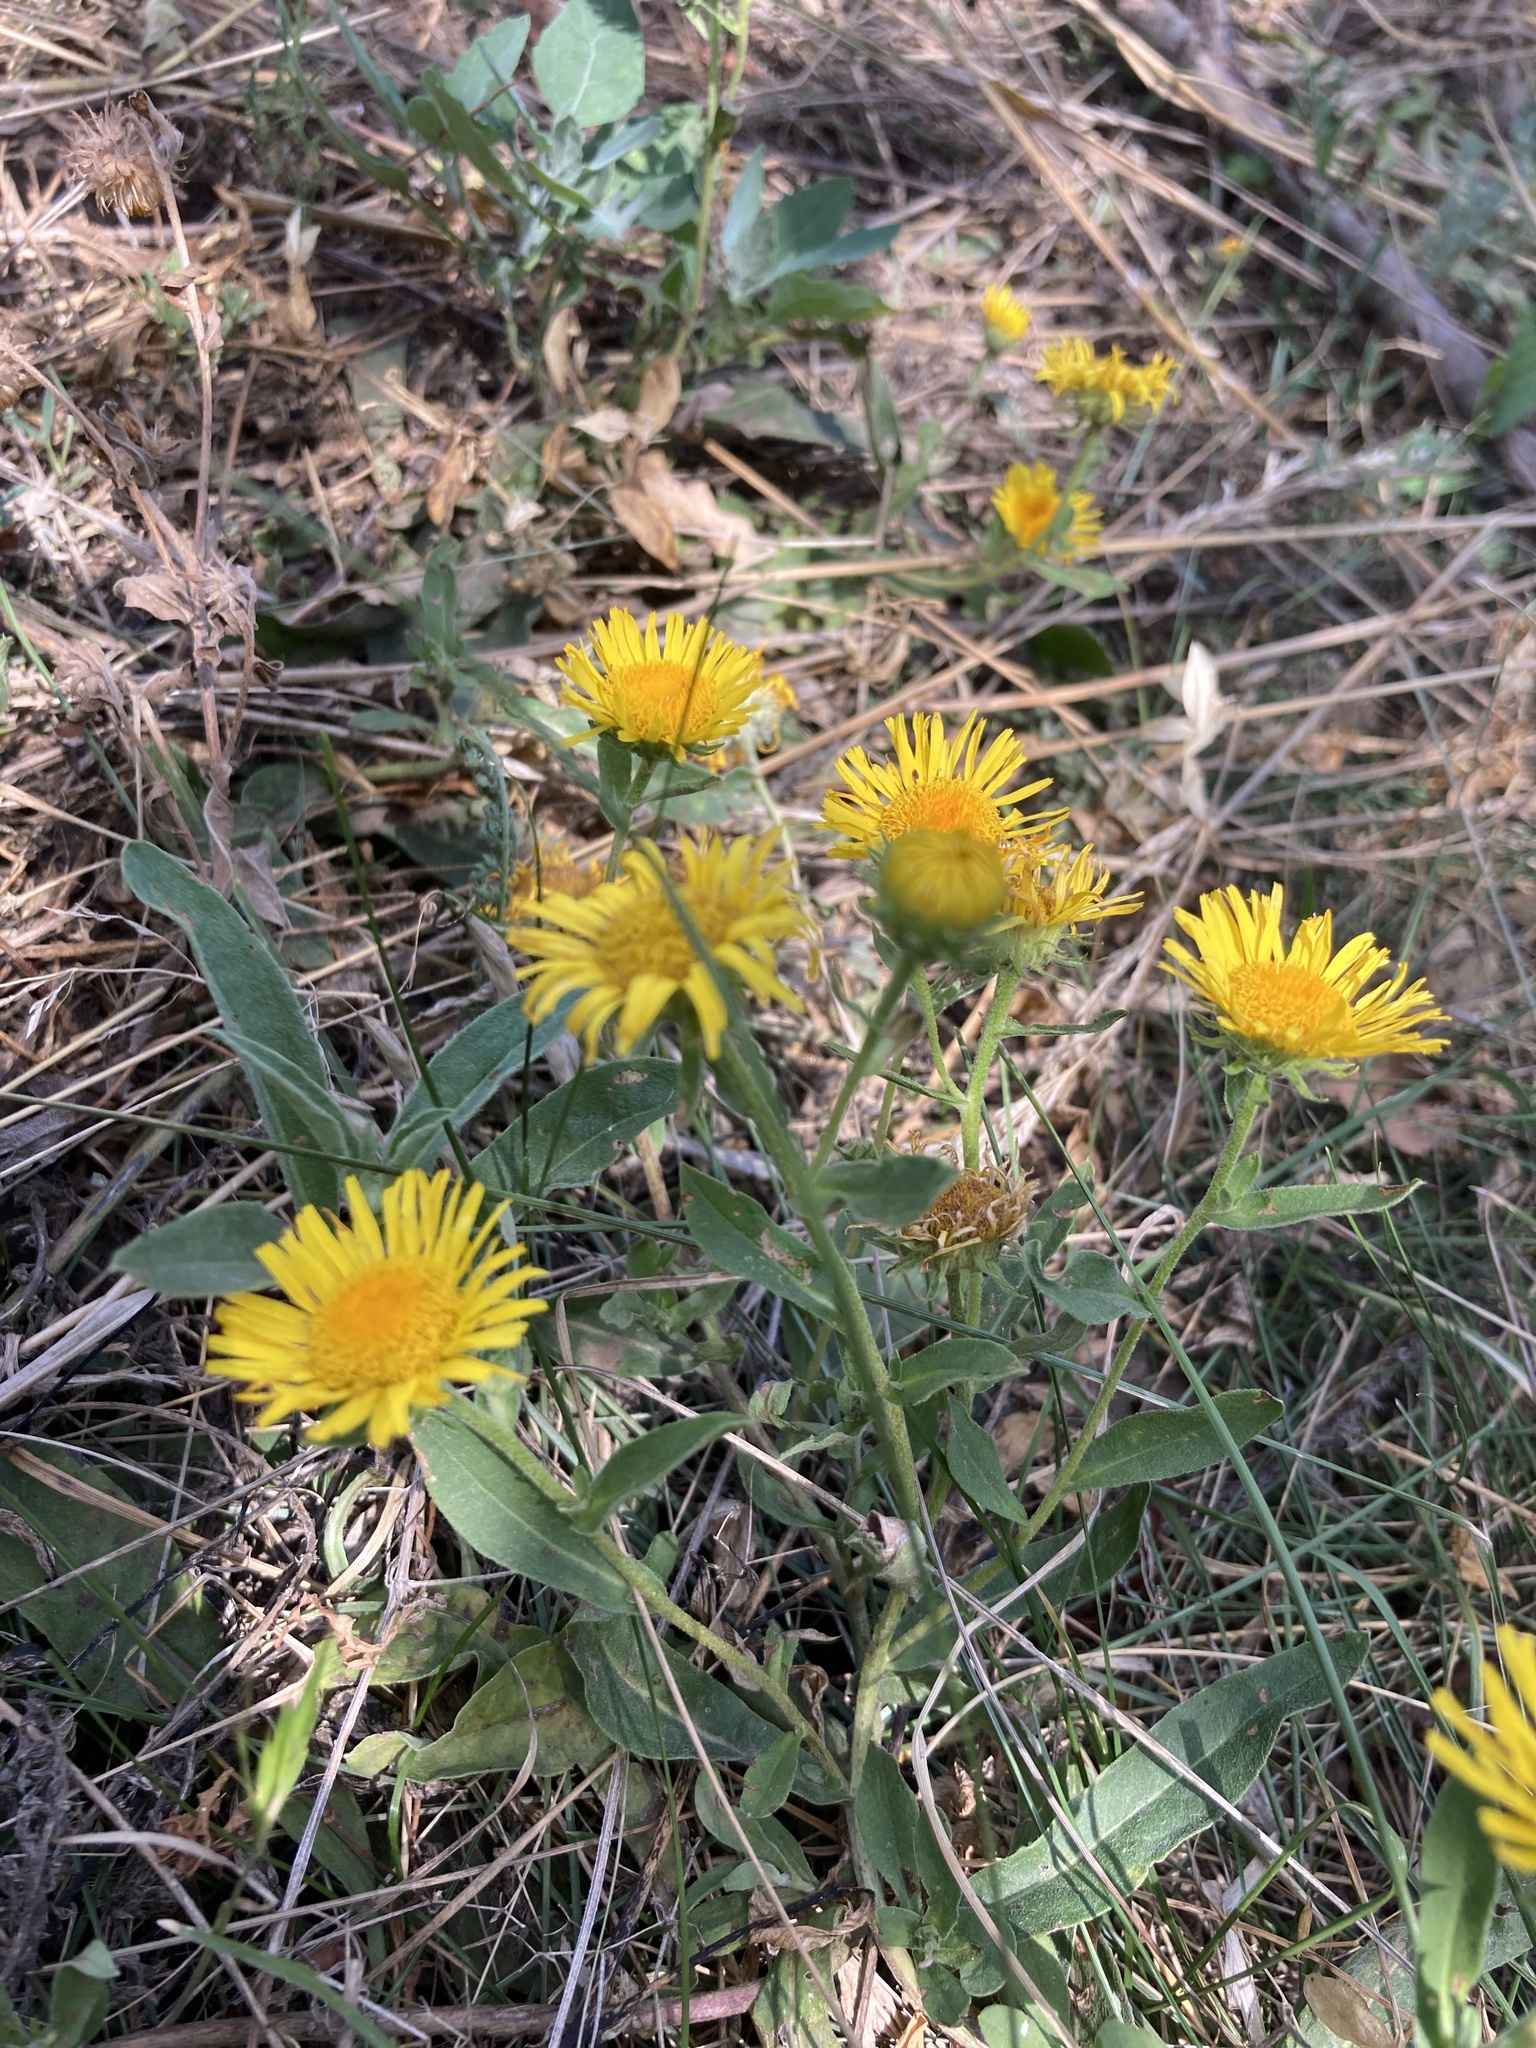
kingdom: Plantae
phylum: Tracheophyta
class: Magnoliopsida
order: Asterales
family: Asteraceae
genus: Pentanema
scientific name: Pentanema britannicum
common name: British elecampane
